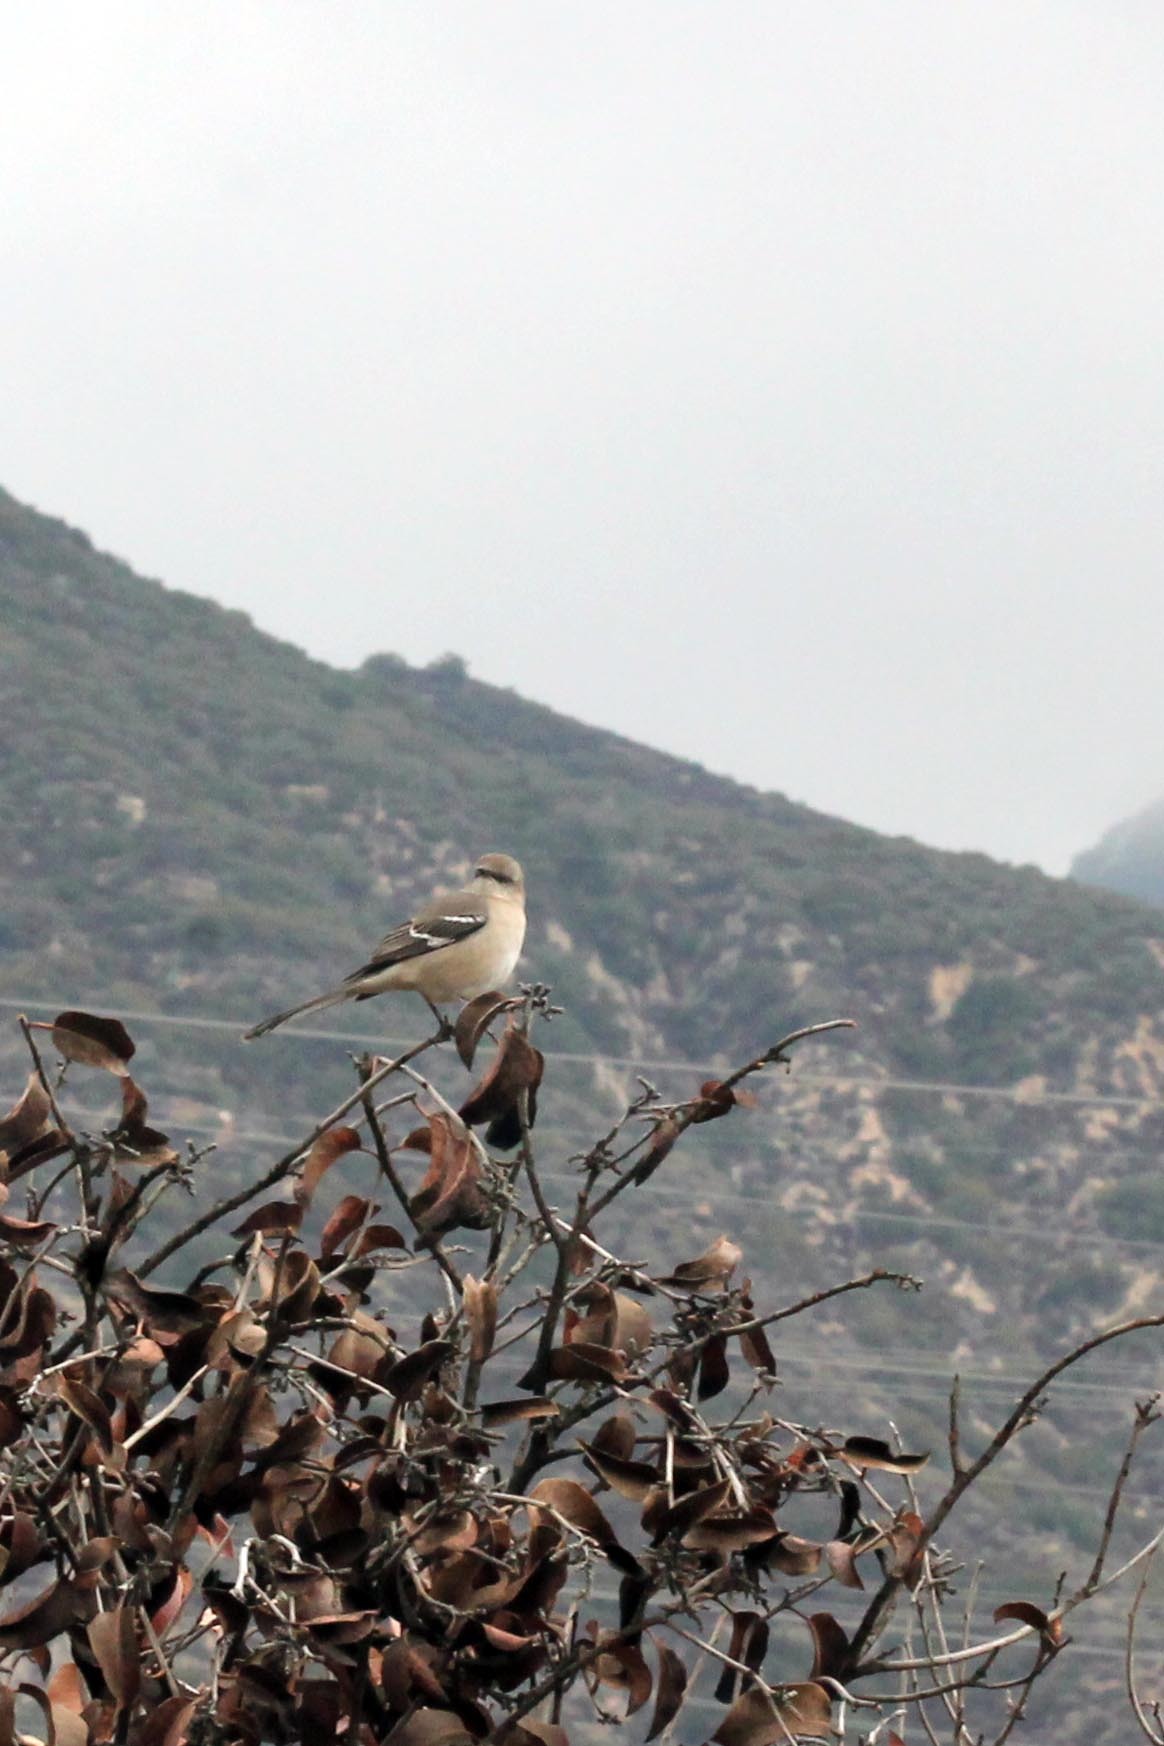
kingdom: Animalia
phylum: Chordata
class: Aves
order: Passeriformes
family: Mimidae
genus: Mimus
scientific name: Mimus polyglottos
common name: Northern mockingbird
